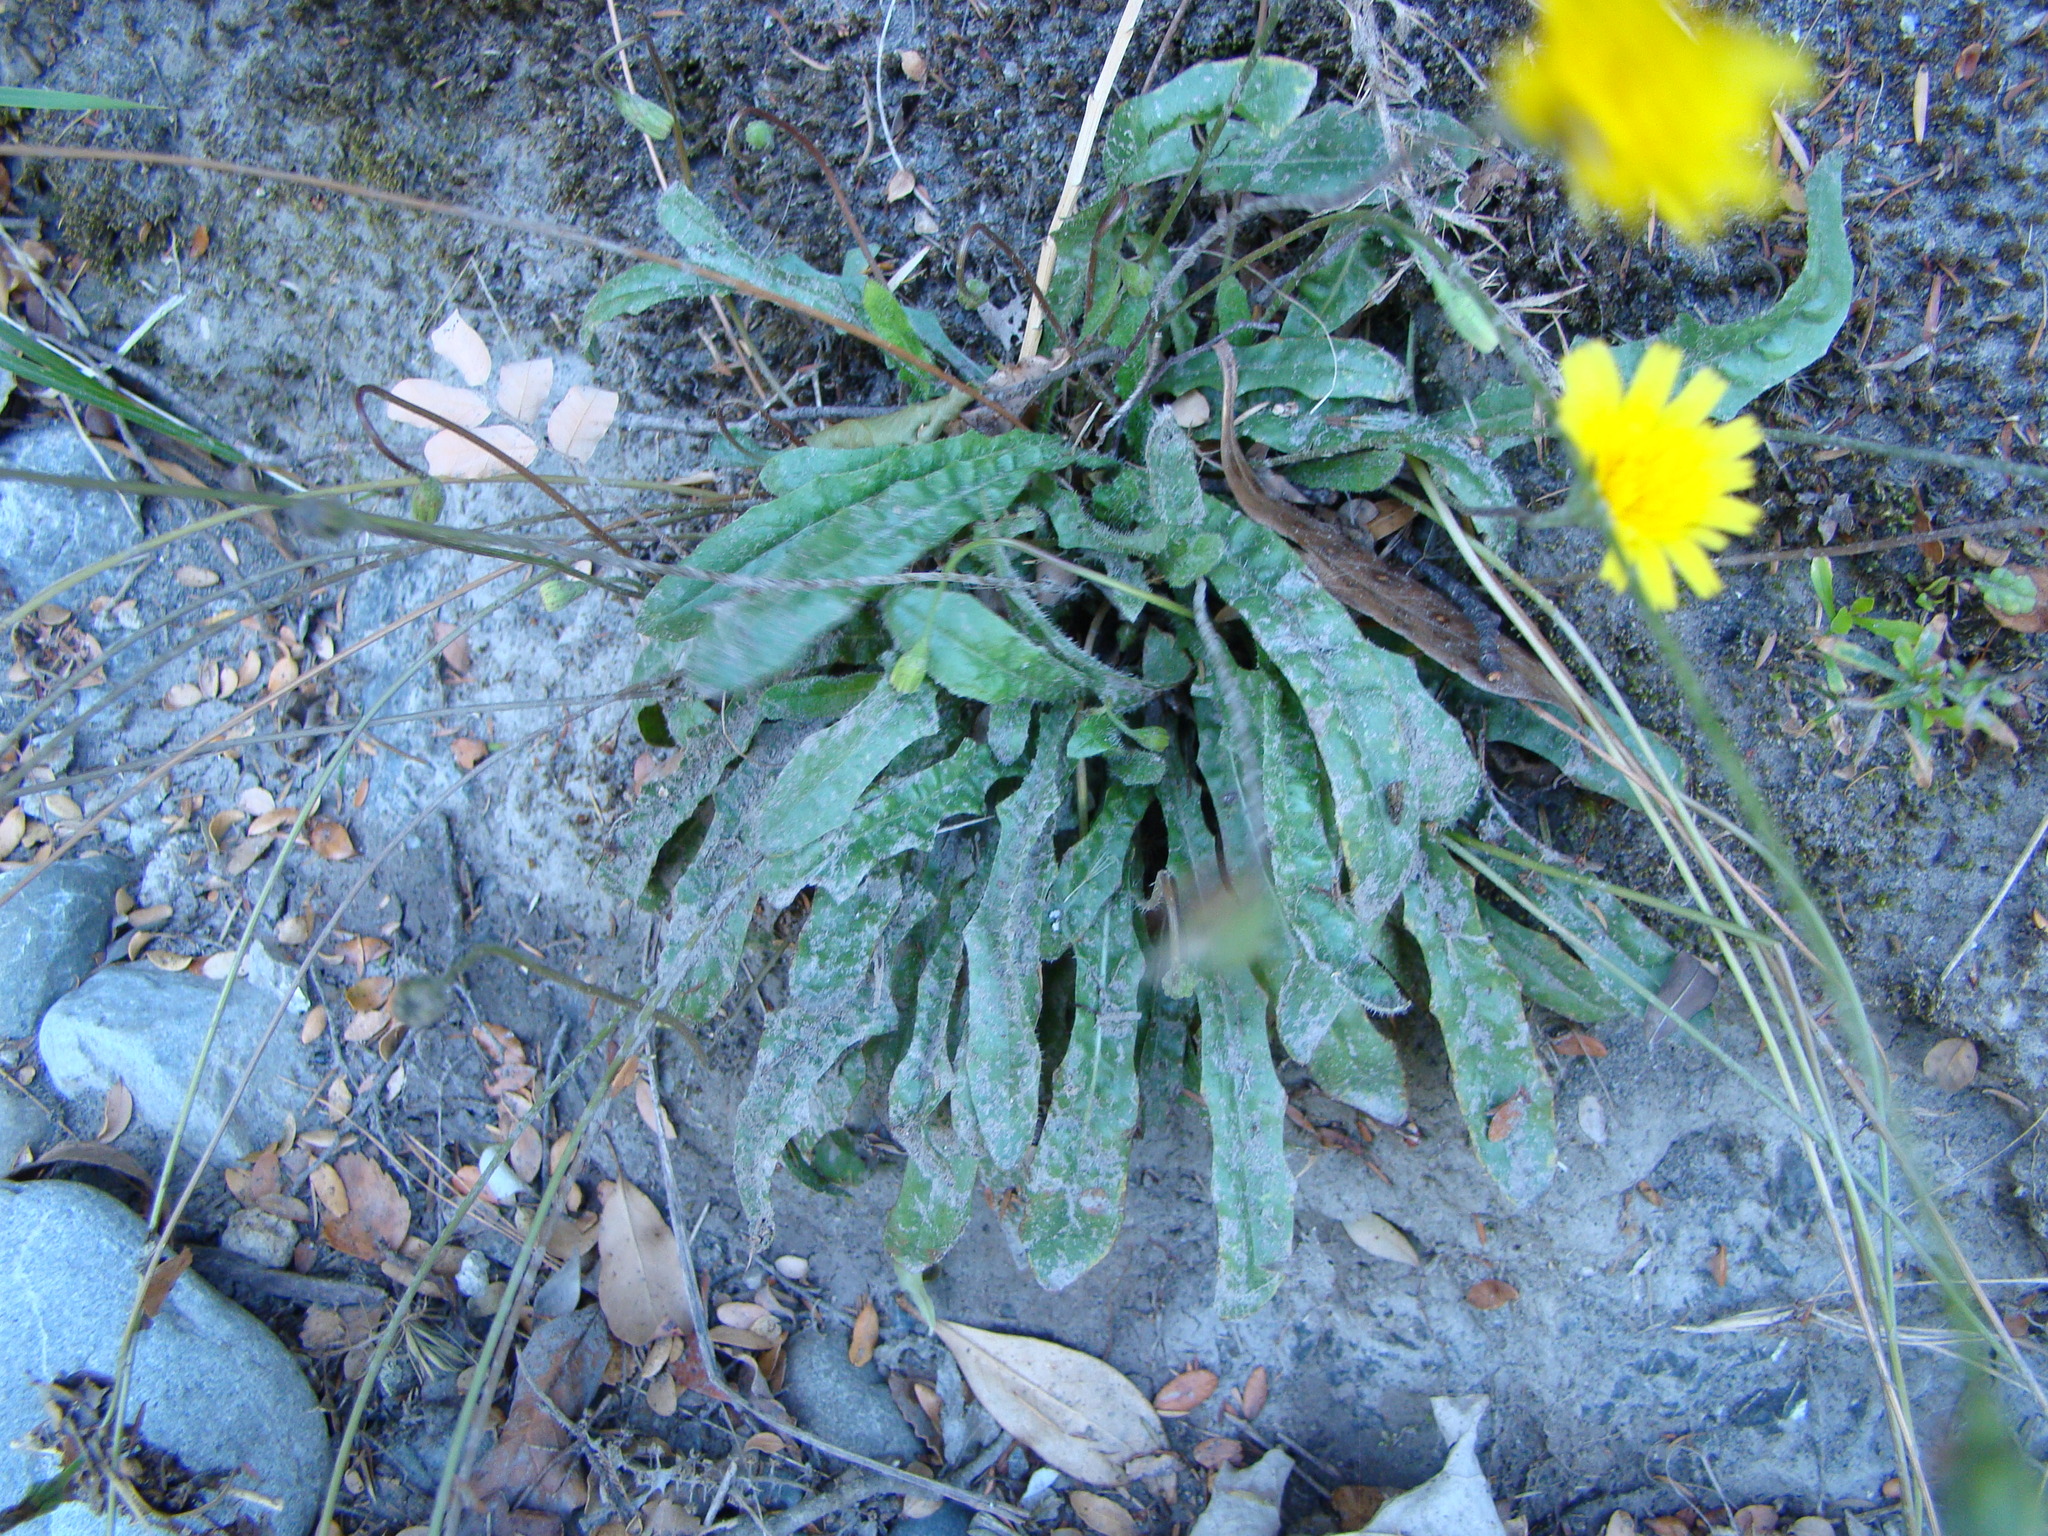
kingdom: Plantae
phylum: Tracheophyta
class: Magnoliopsida
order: Asterales
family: Asteraceae
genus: Hypochaeris
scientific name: Hypochaeris radicata
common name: Flatweed
